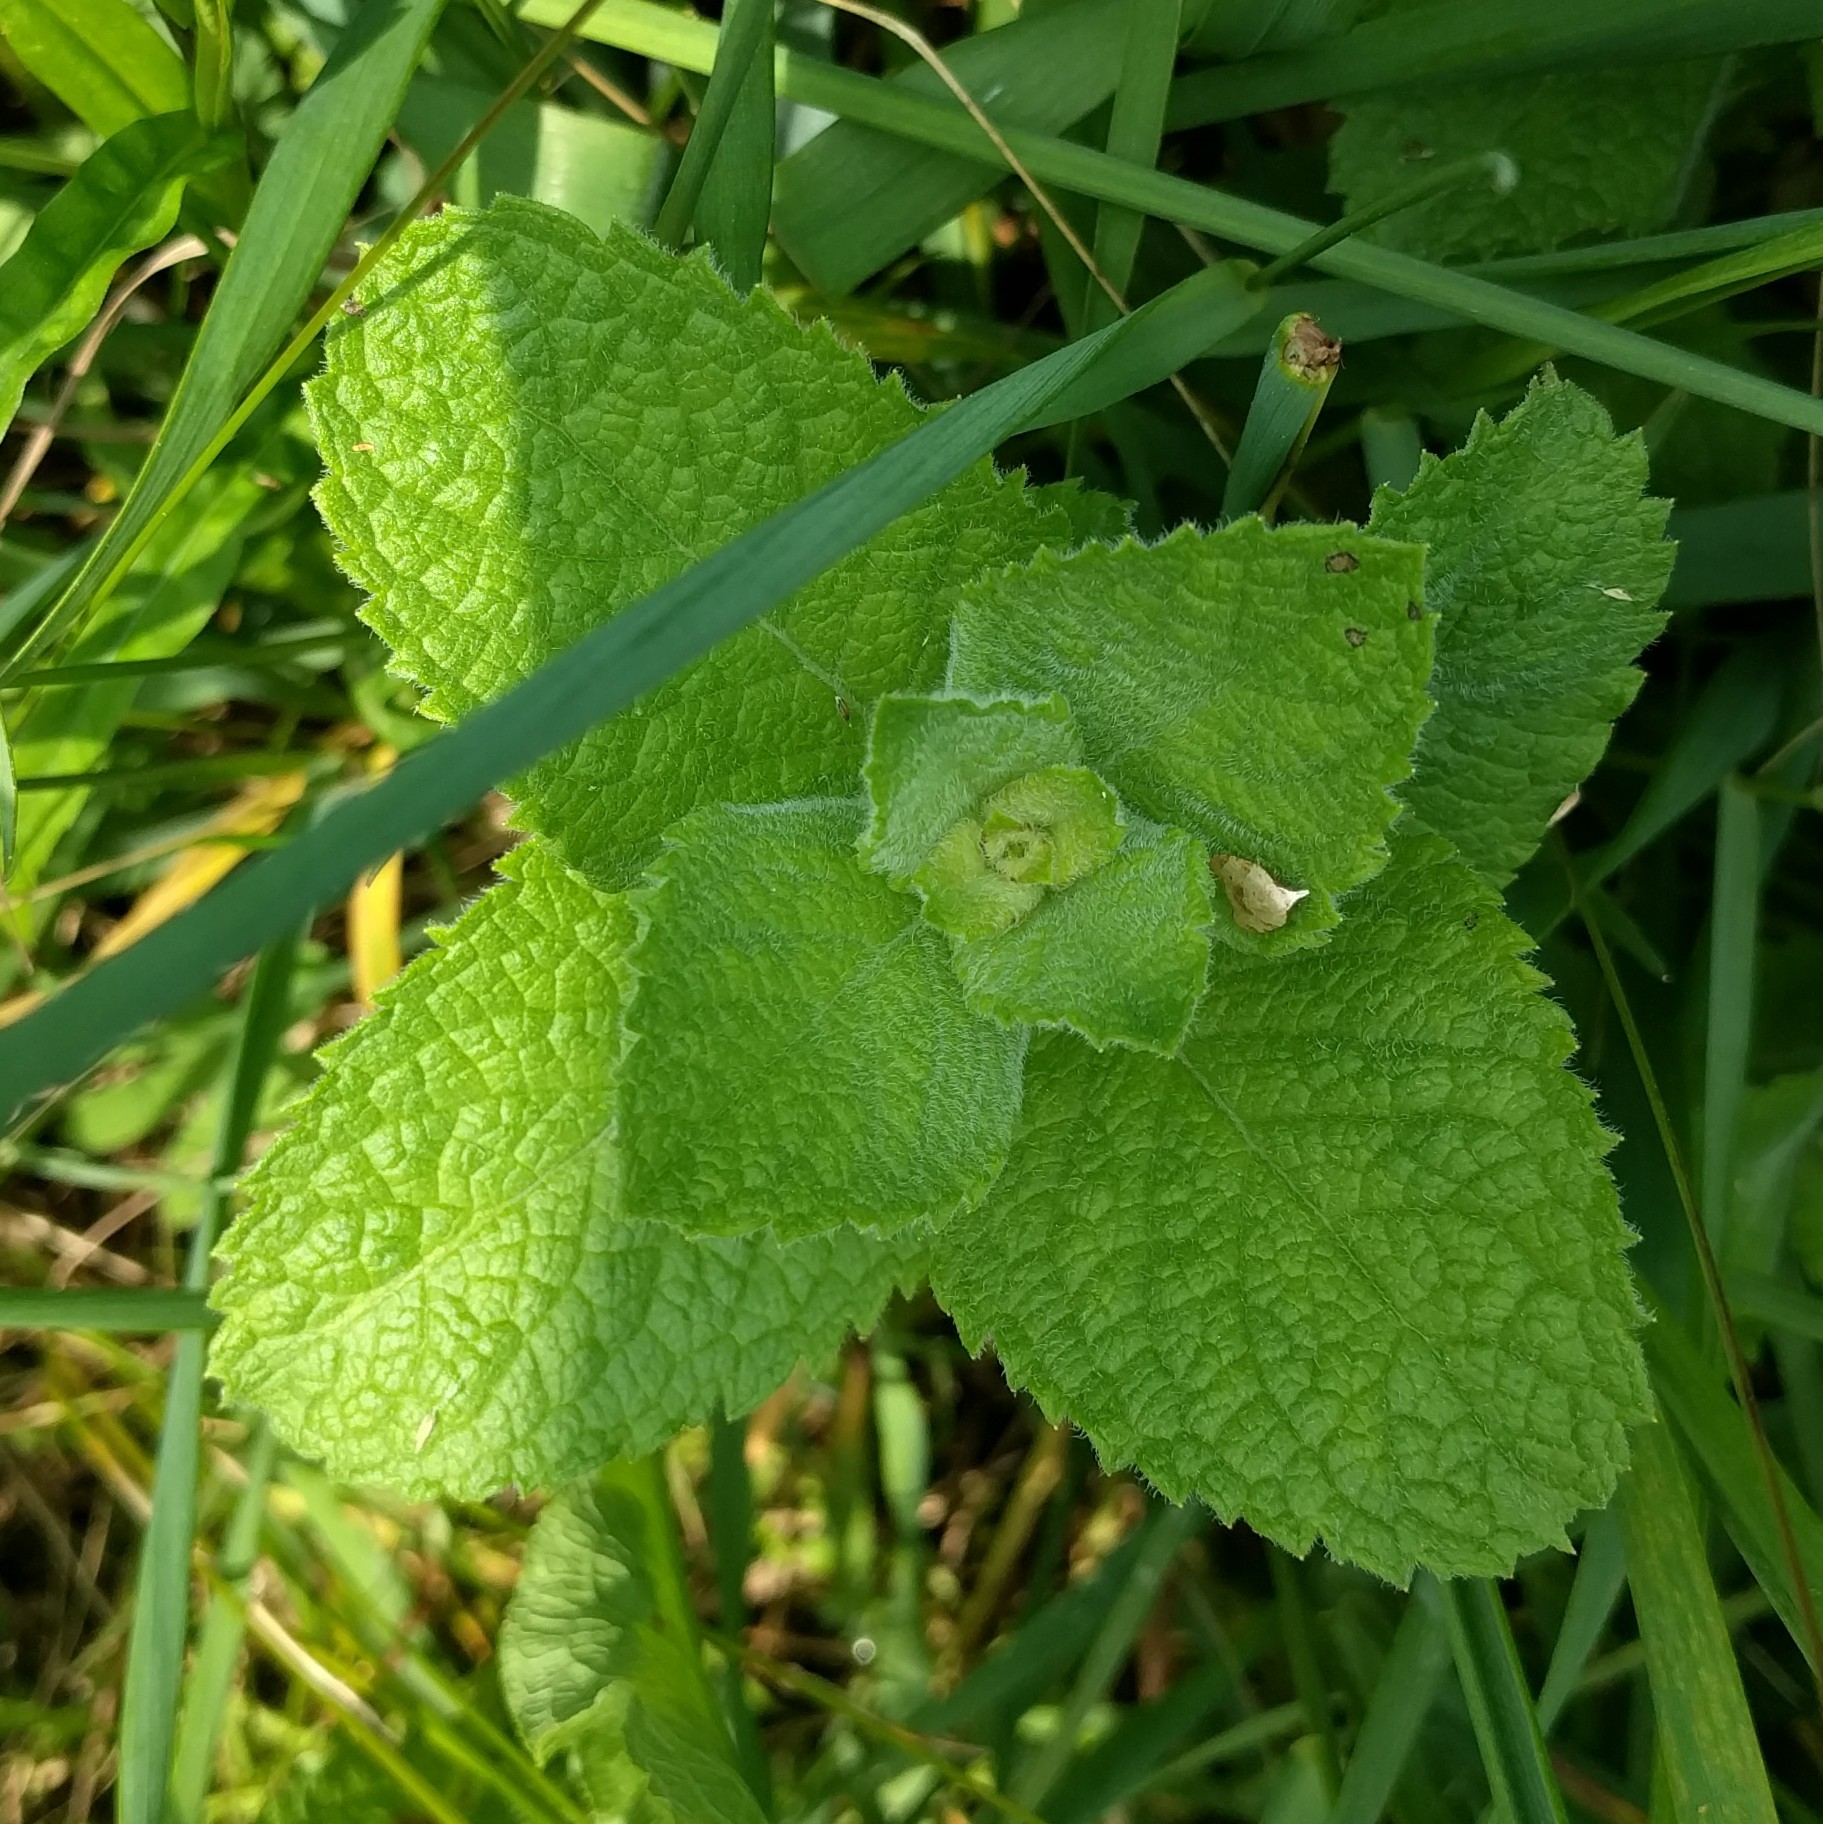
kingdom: Plantae
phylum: Tracheophyta
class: Magnoliopsida
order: Lamiales
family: Lamiaceae
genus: Mentha
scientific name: Mentha suaveolens
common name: Apple mint
